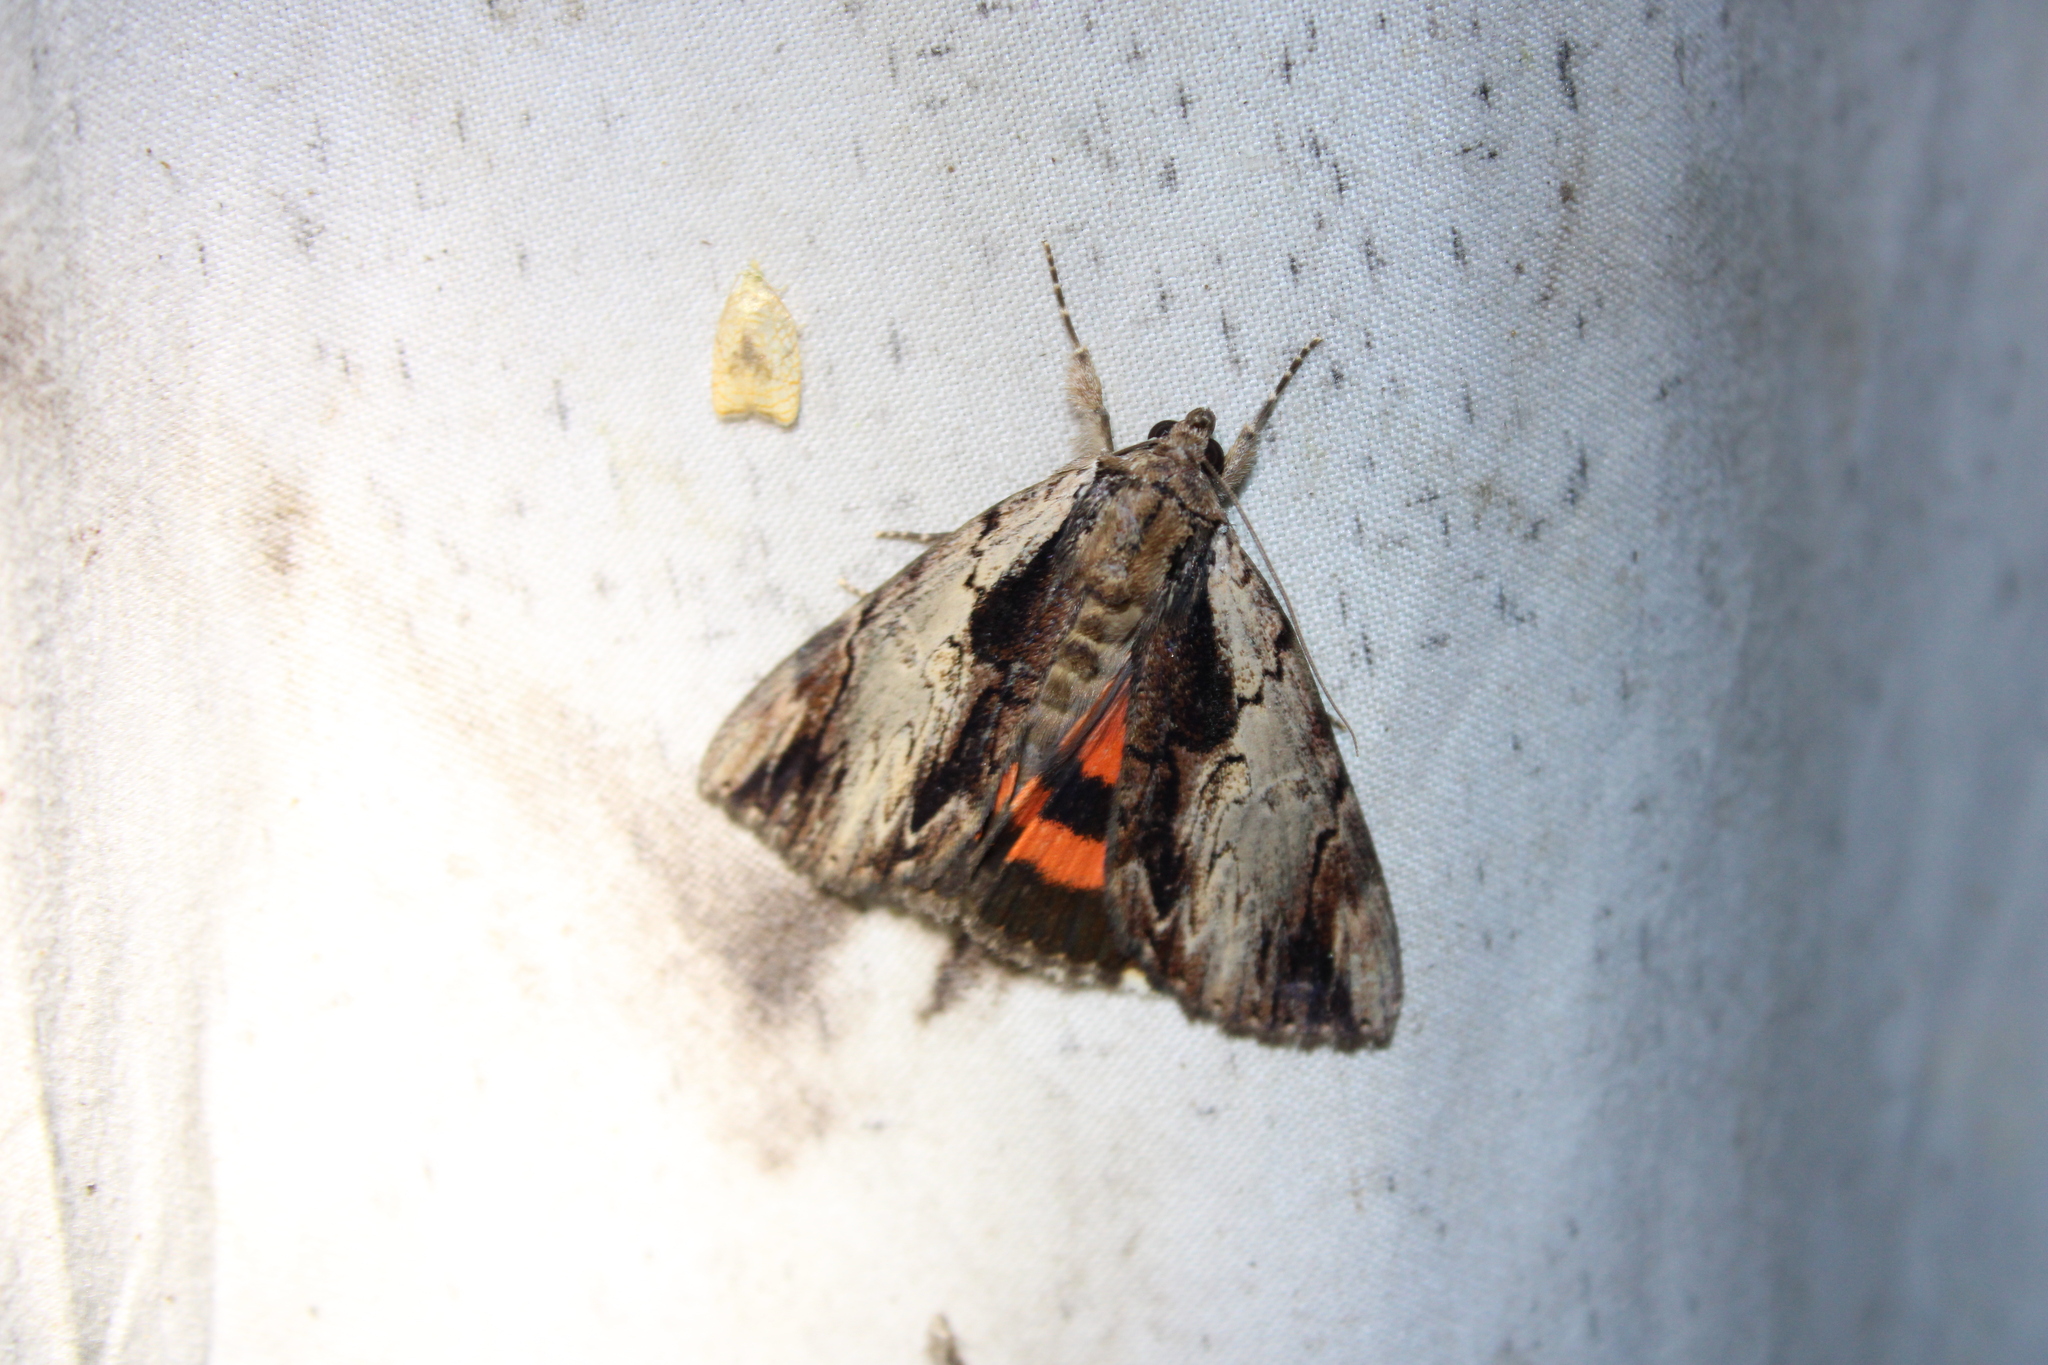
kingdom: Animalia
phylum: Arthropoda
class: Insecta
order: Lepidoptera
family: Erebidae
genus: Catocala
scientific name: Catocala ultronia
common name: Ultronia underwing
